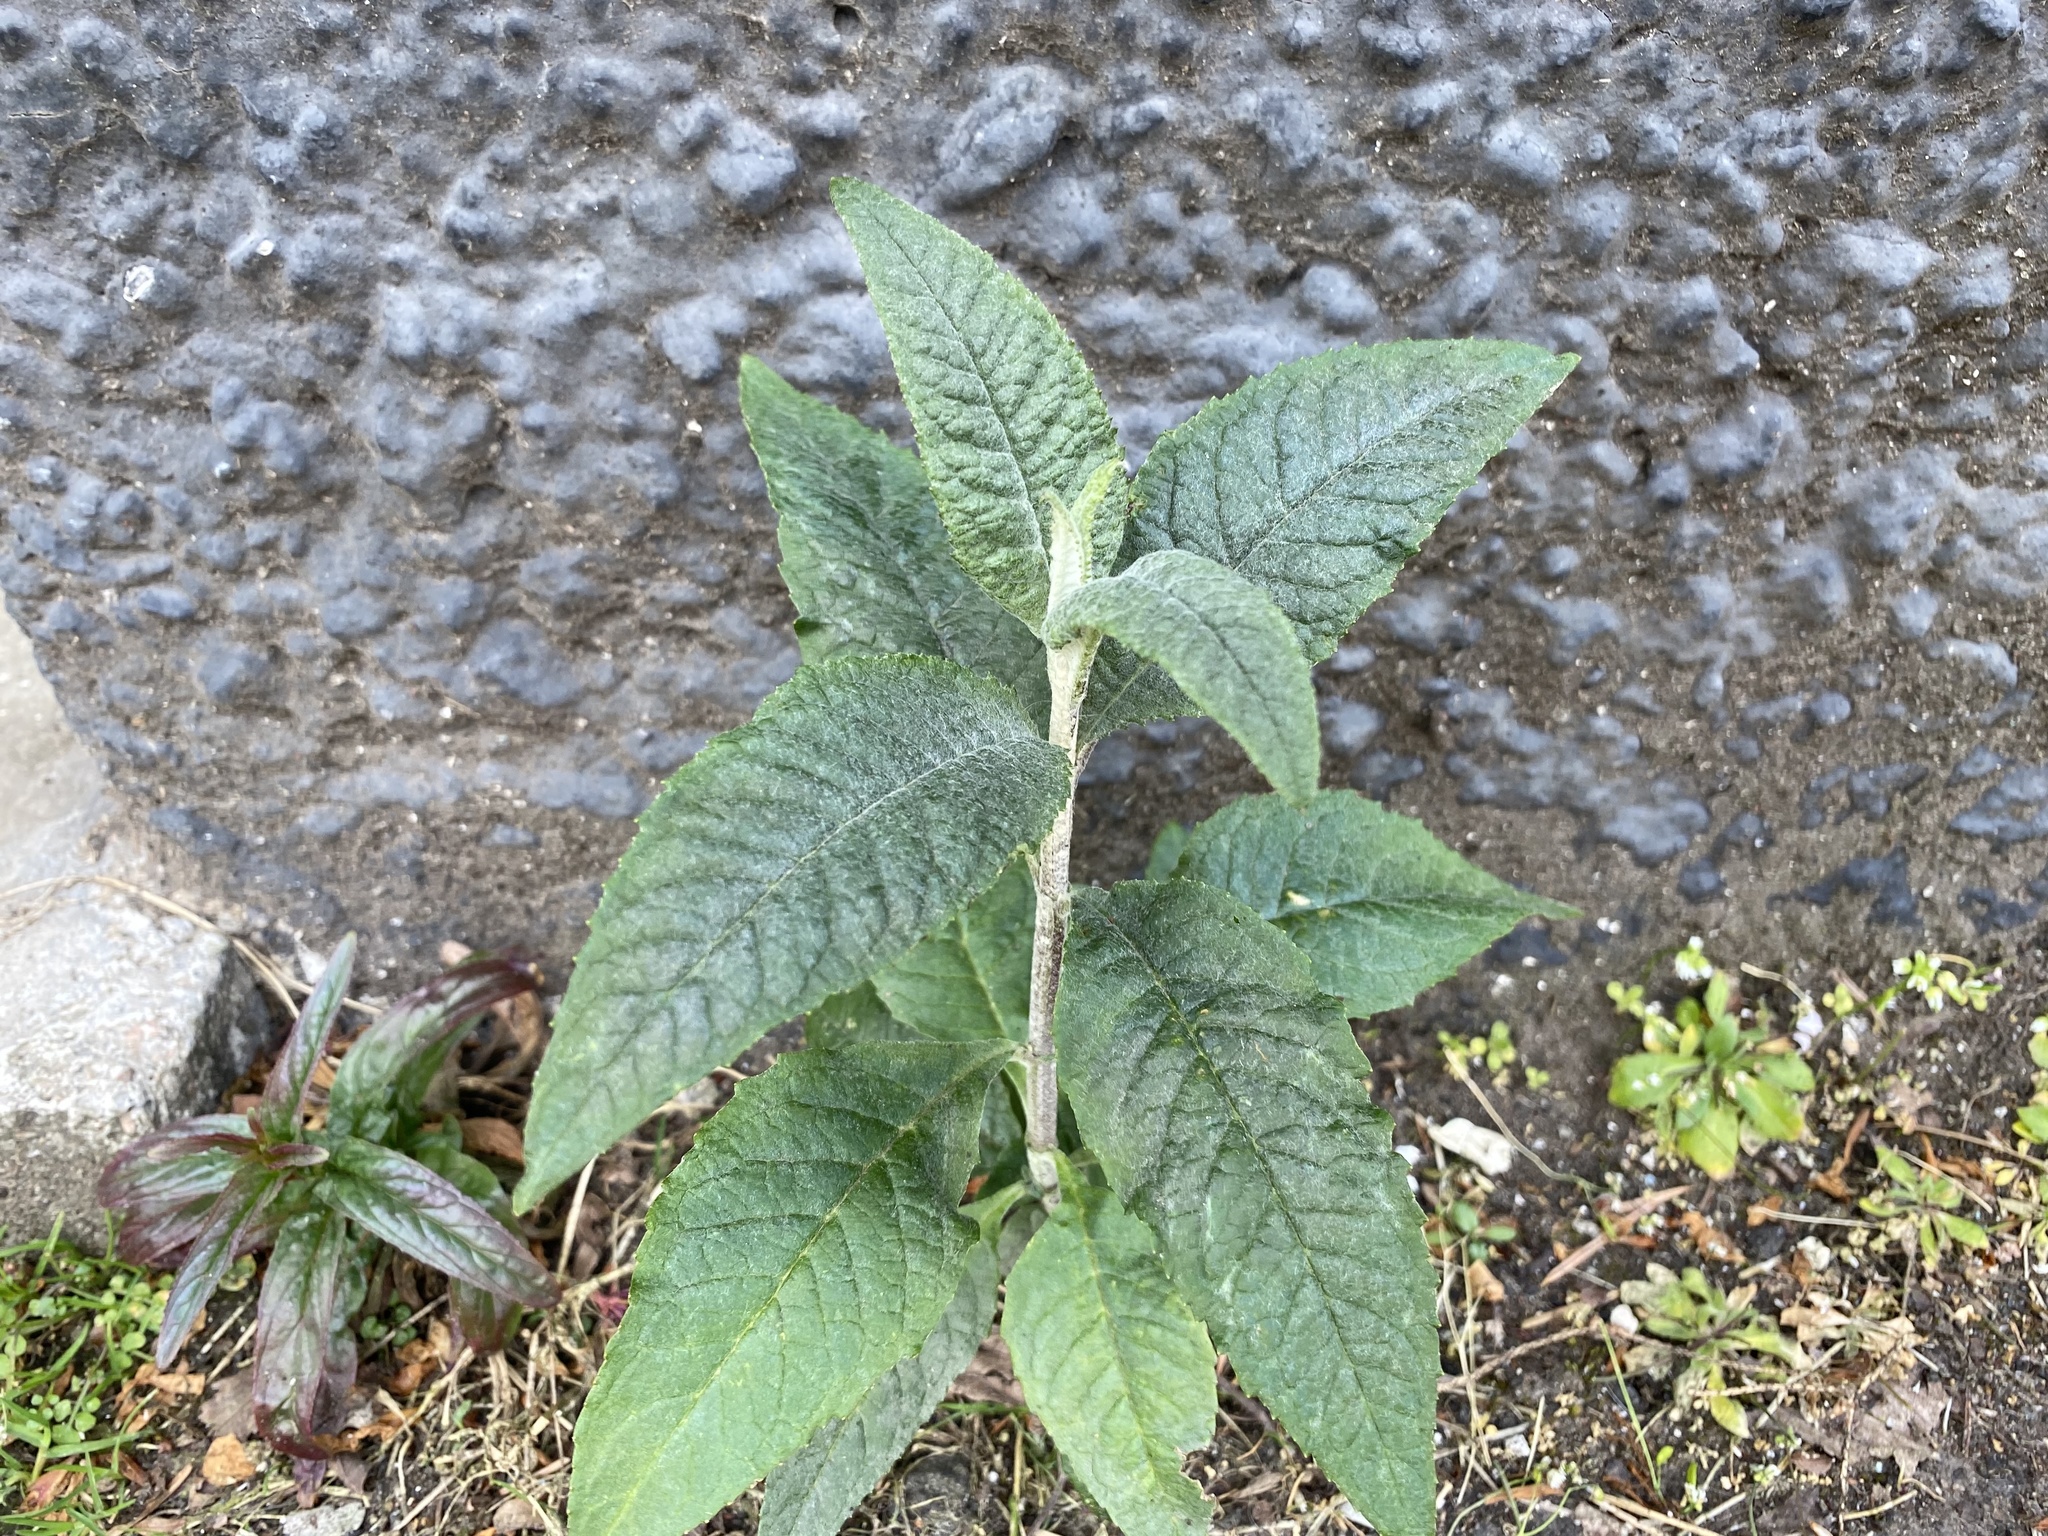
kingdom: Plantae
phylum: Tracheophyta
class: Magnoliopsida
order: Lamiales
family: Scrophulariaceae
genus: Buddleja
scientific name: Buddleja davidii
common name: Butterfly-bush
